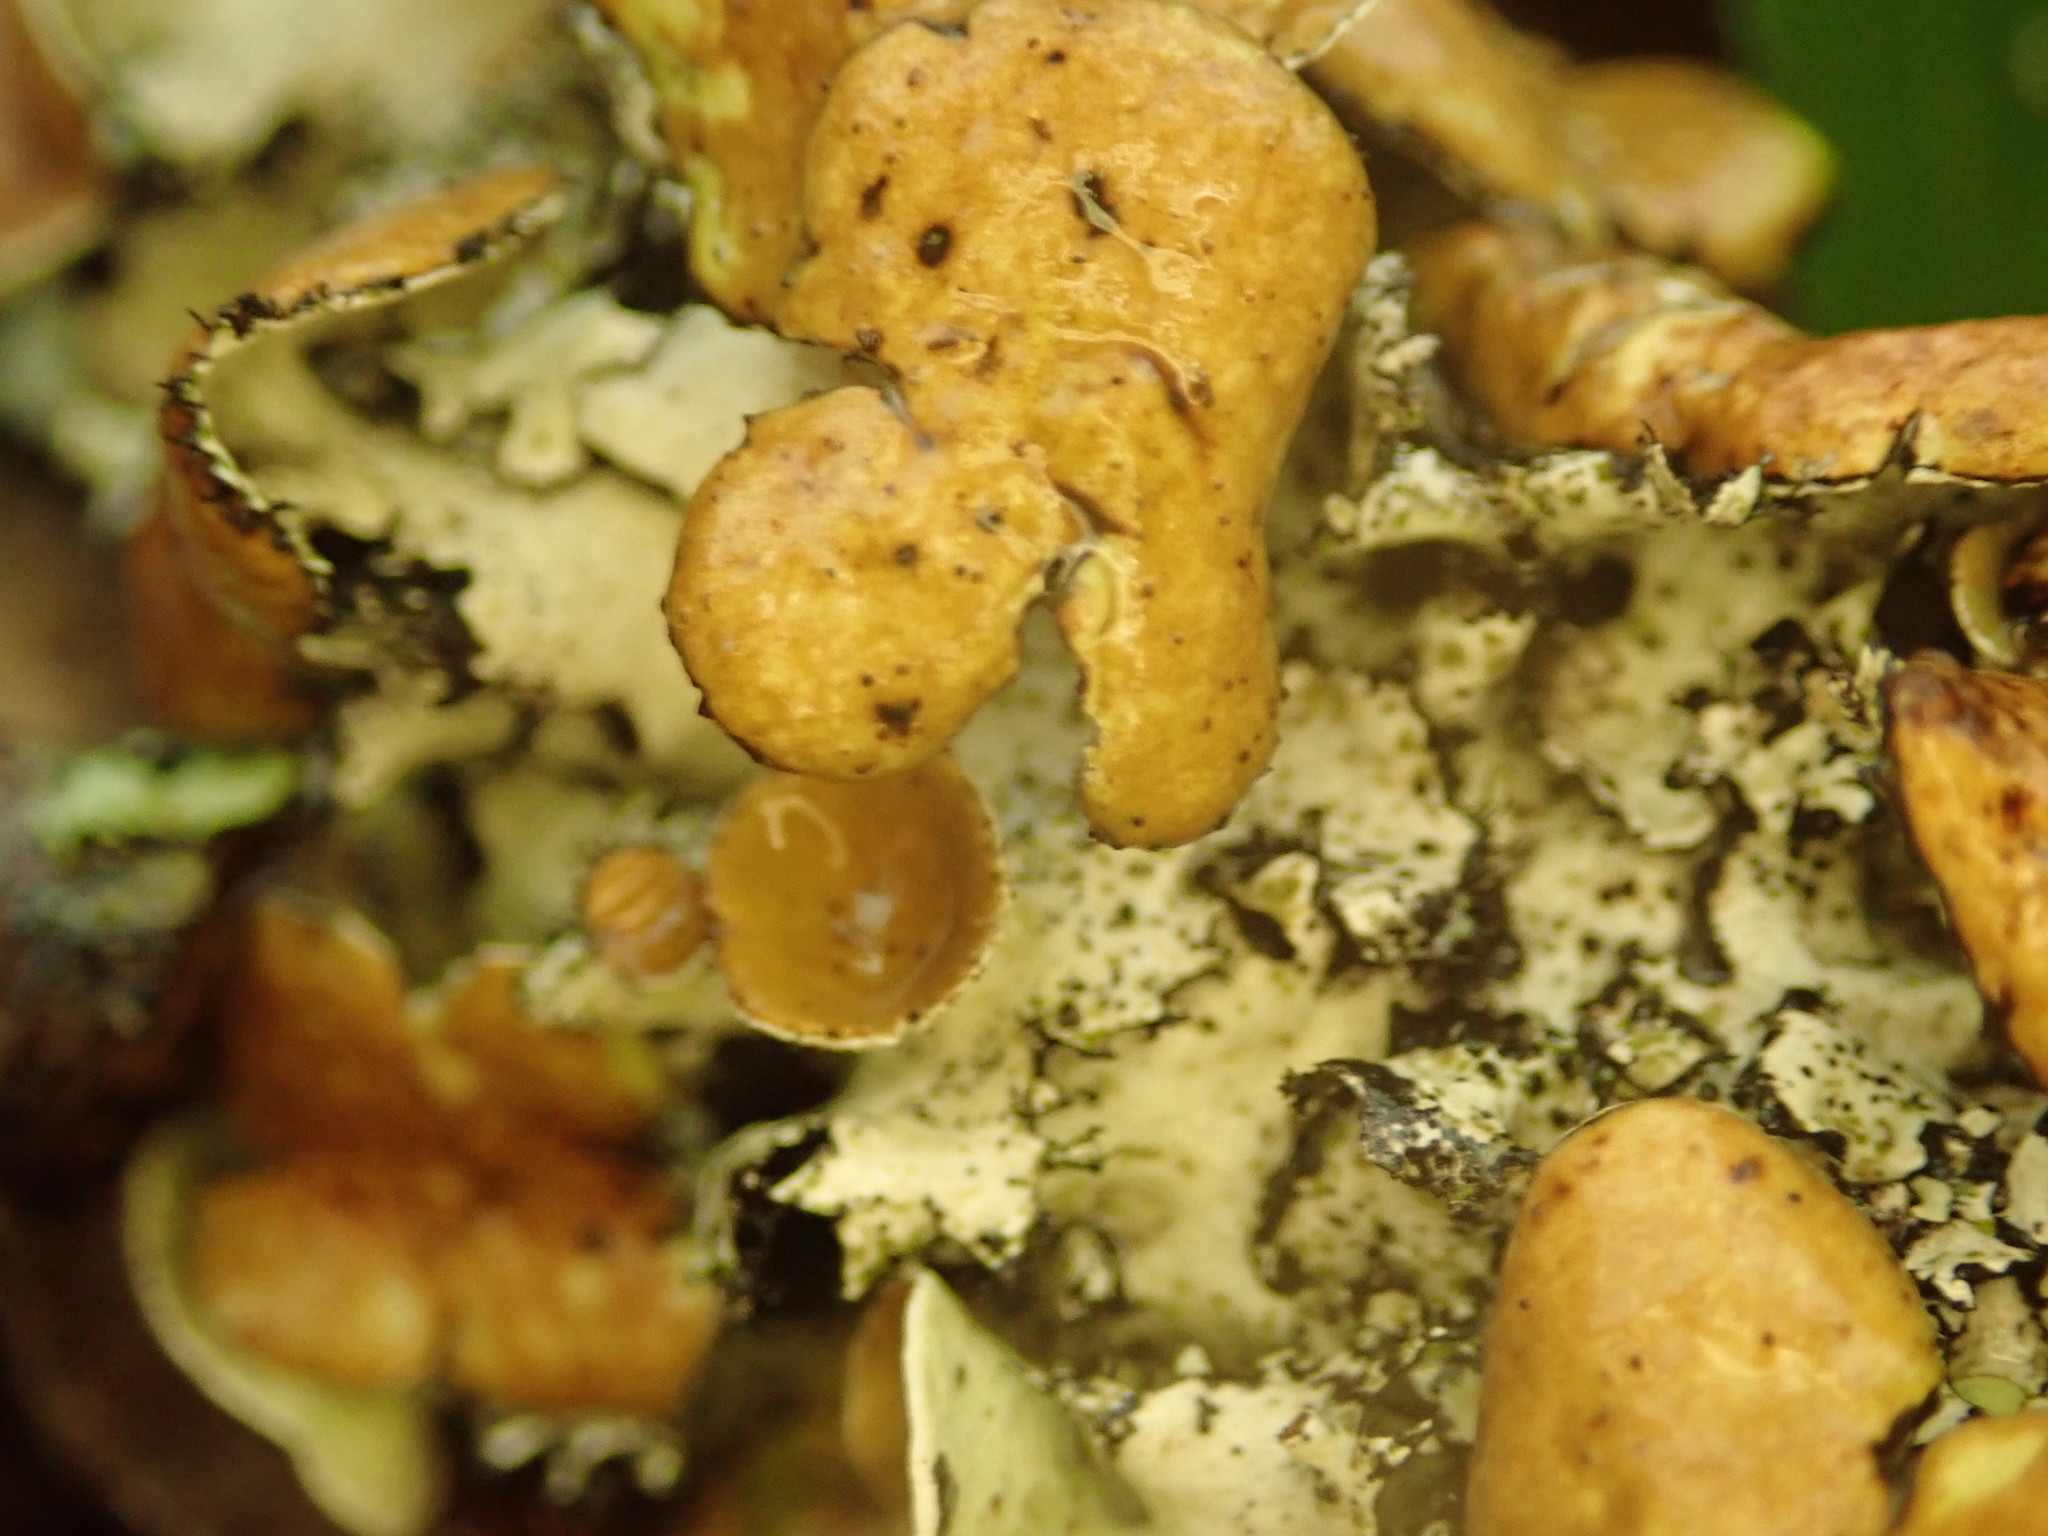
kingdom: Fungi
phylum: Ascomycota
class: Lecanoromycetes
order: Lecanorales
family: Parmeliaceae
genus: Parmotrema
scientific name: Parmotrema submarginale
